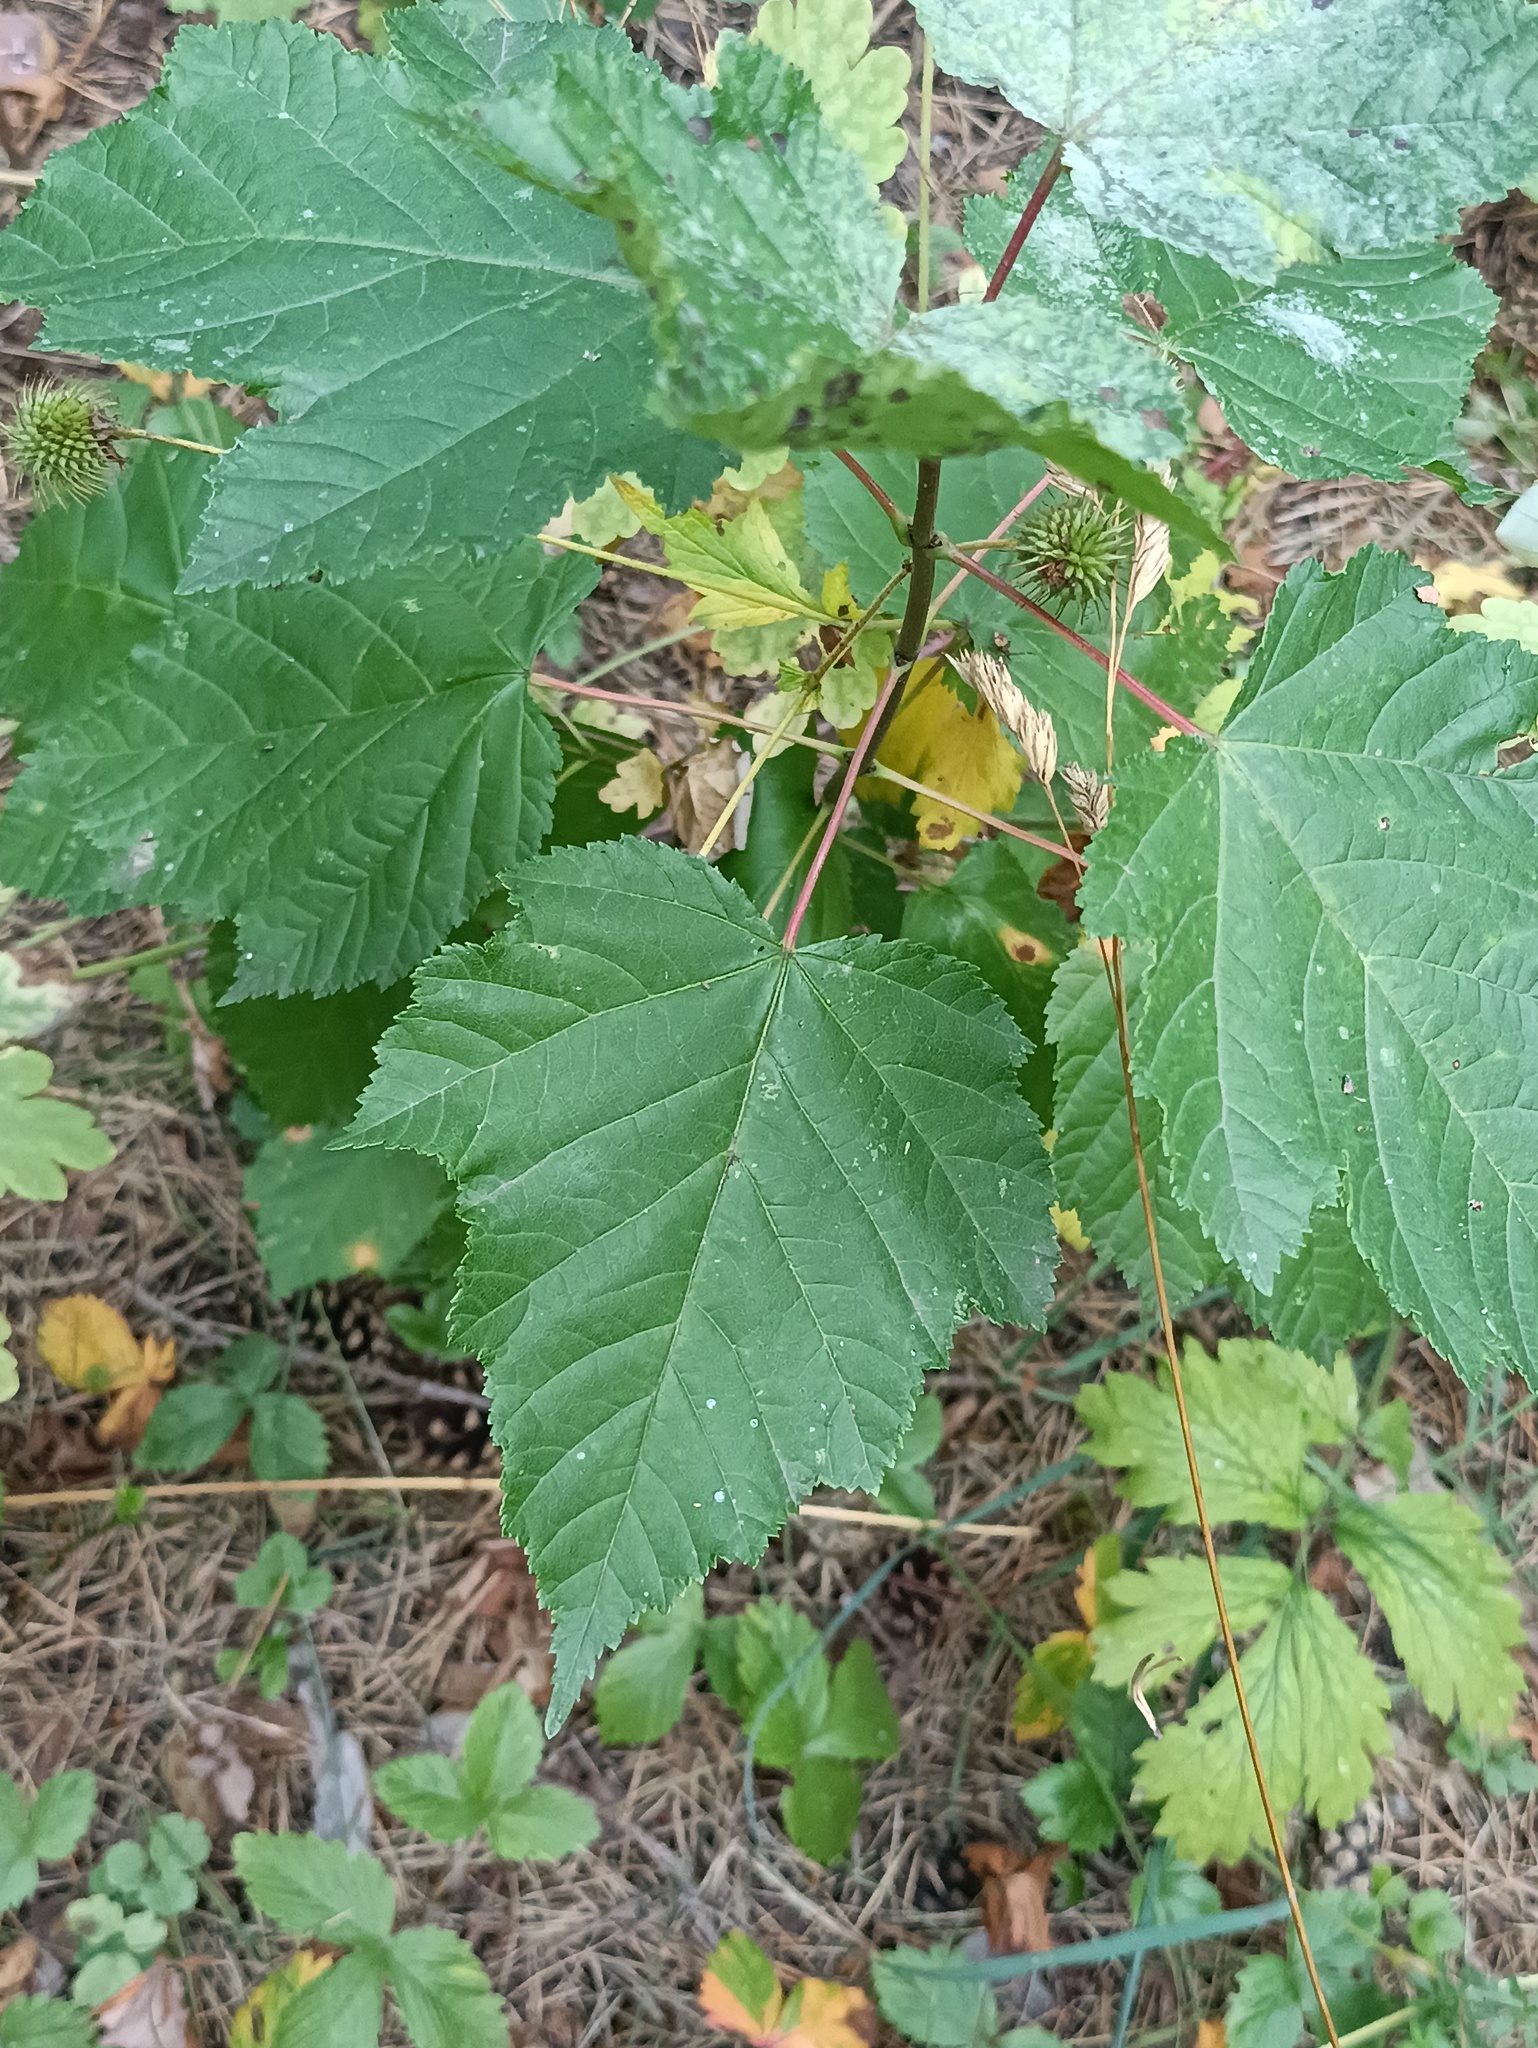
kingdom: Plantae
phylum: Tracheophyta
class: Magnoliopsida
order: Sapindales
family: Sapindaceae
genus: Acer
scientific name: Acer tataricum
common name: Tartar maple
